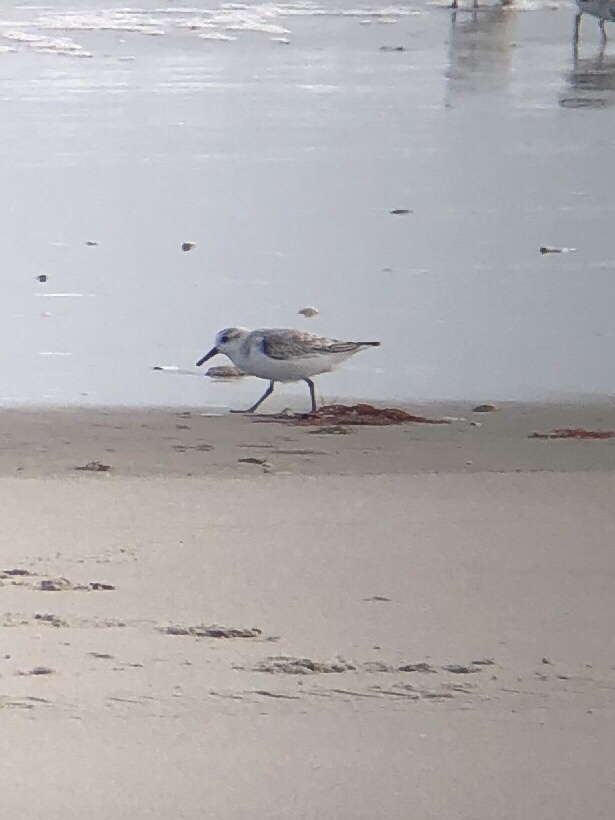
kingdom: Animalia
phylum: Chordata
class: Aves
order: Charadriiformes
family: Scolopacidae
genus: Calidris
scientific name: Calidris alba
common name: Sanderling
